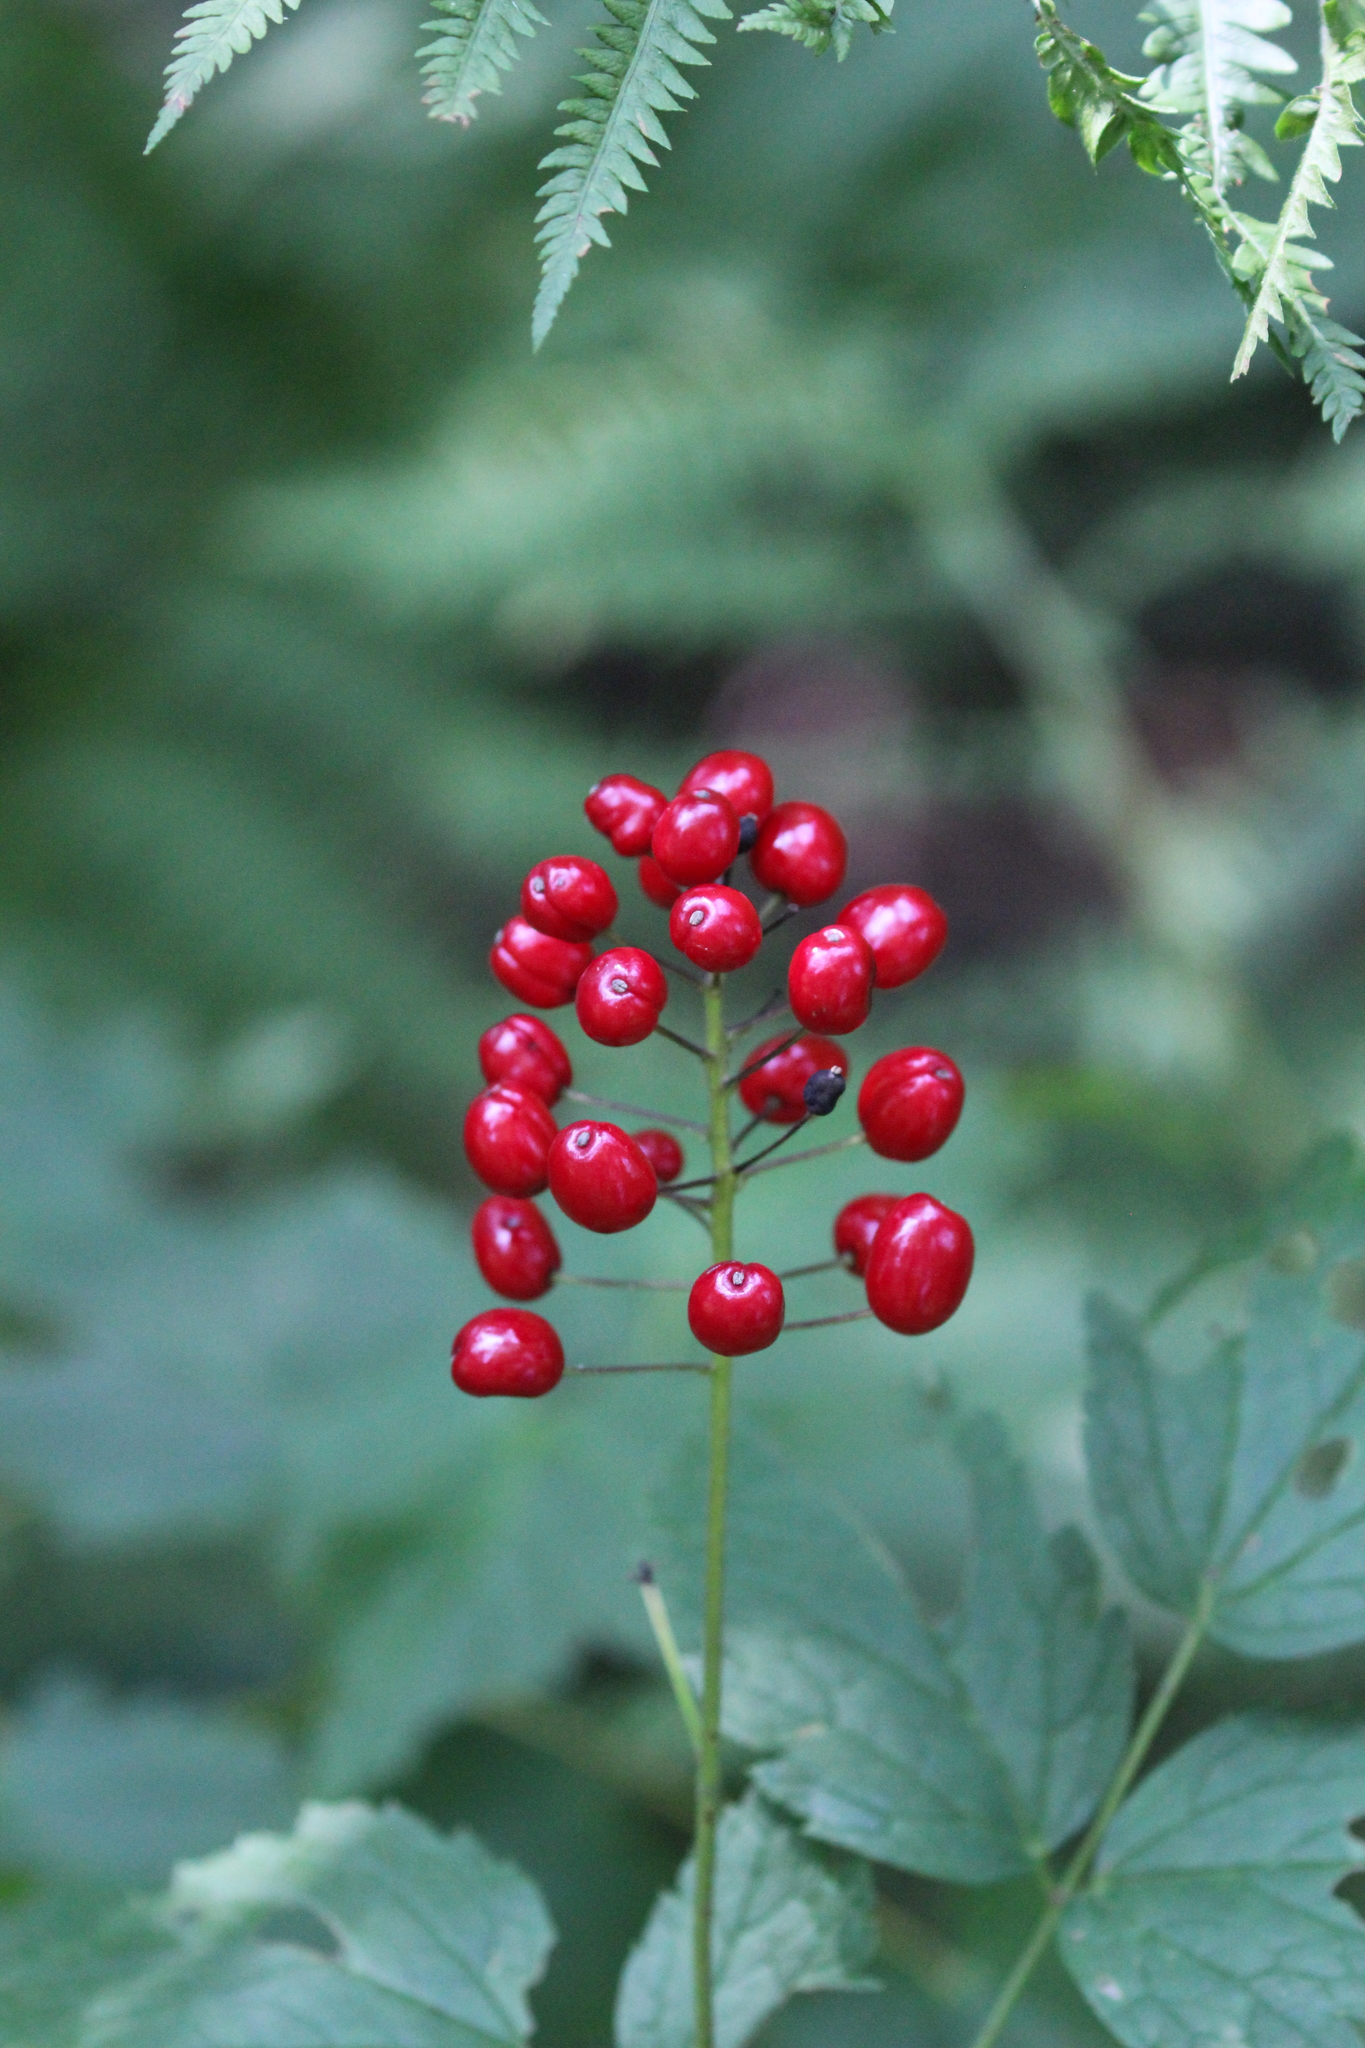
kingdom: Plantae
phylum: Tracheophyta
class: Magnoliopsida
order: Ranunculales
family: Ranunculaceae
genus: Actaea
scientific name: Actaea rubra
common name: Red baneberry
